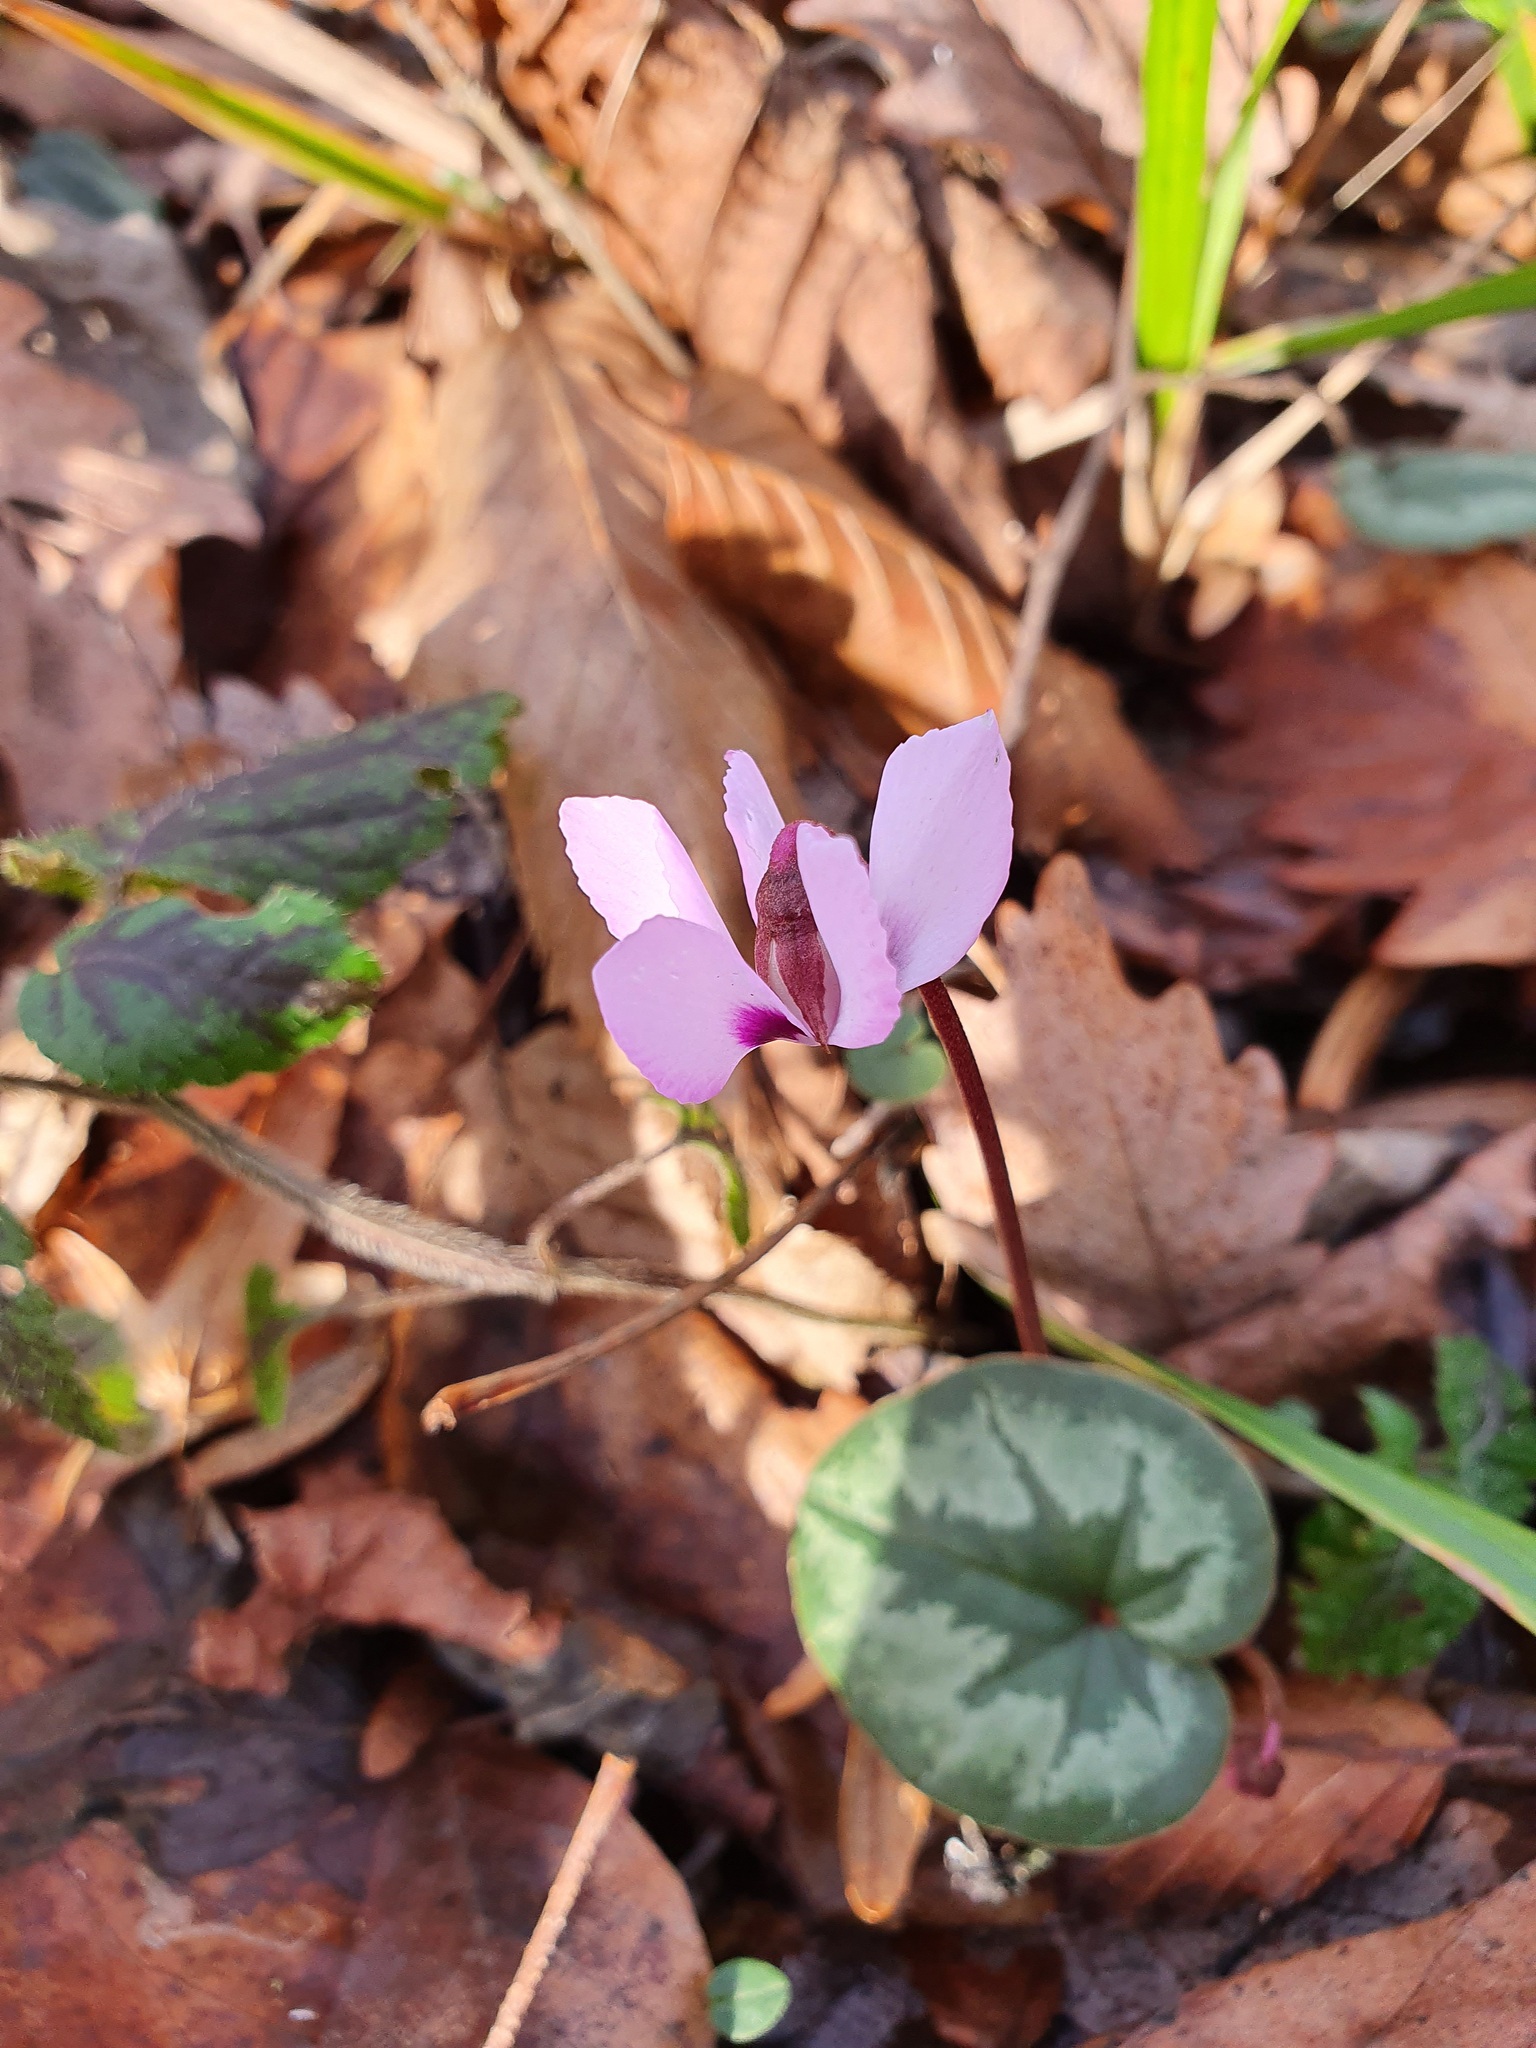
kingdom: Plantae
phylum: Tracheophyta
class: Magnoliopsida
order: Ericales
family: Primulaceae
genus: Cyclamen
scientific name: Cyclamen coum
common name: Eastern sowbread
